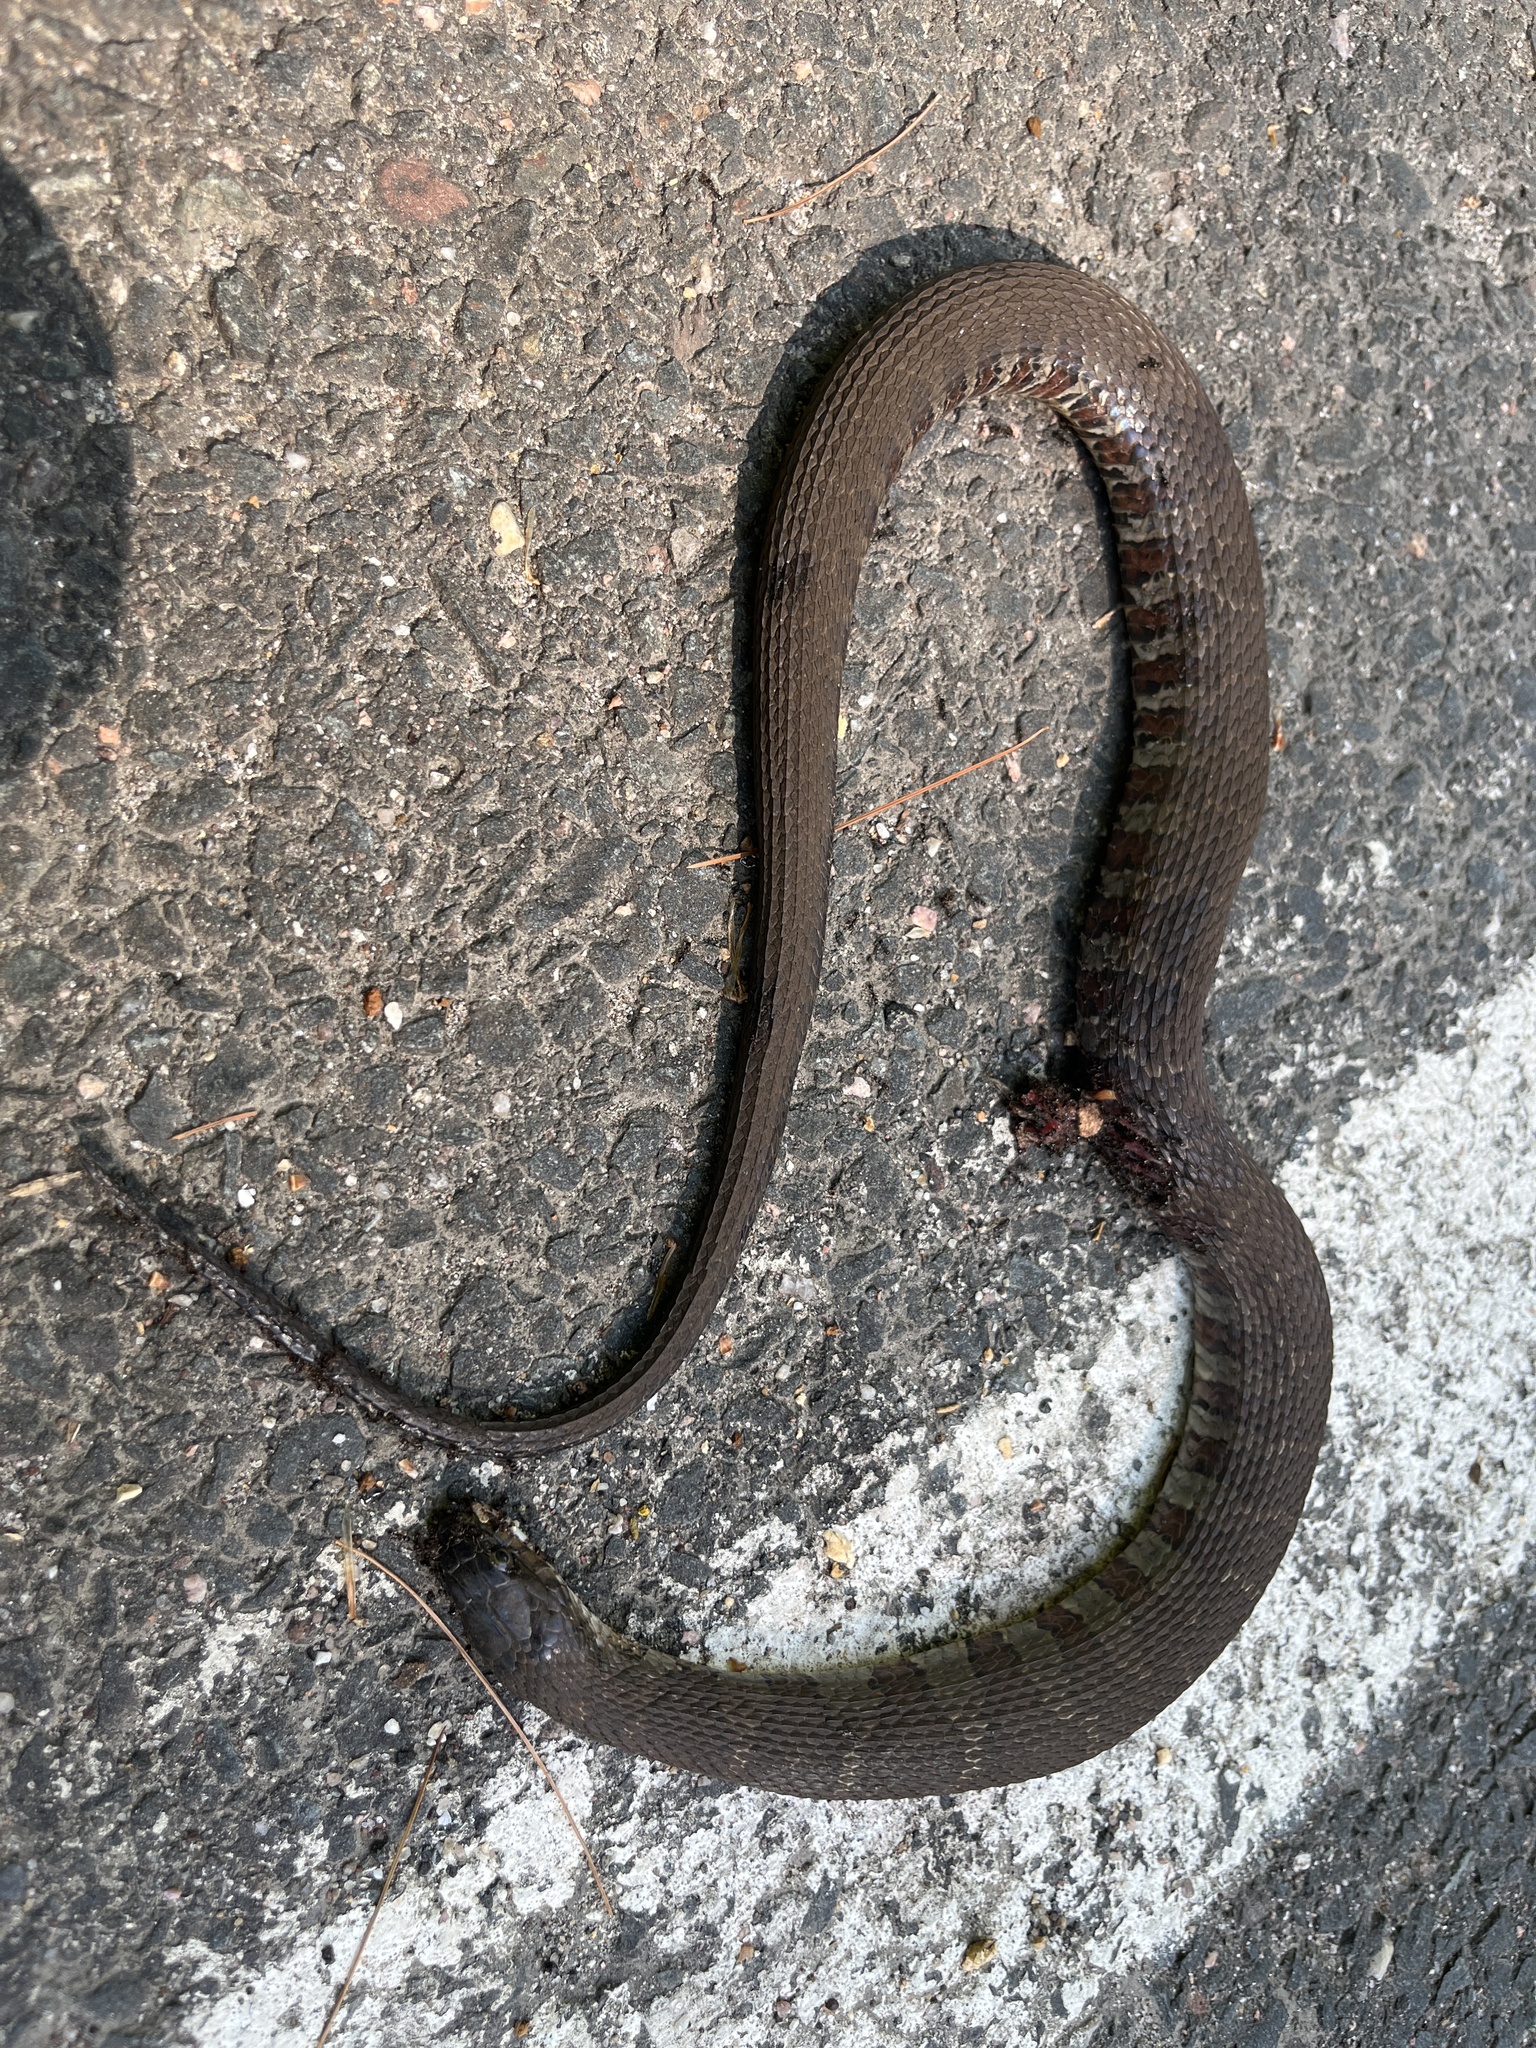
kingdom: Animalia
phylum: Chordata
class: Squamata
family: Colubridae
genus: Nerodia
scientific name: Nerodia sipedon
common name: Northern water snake
